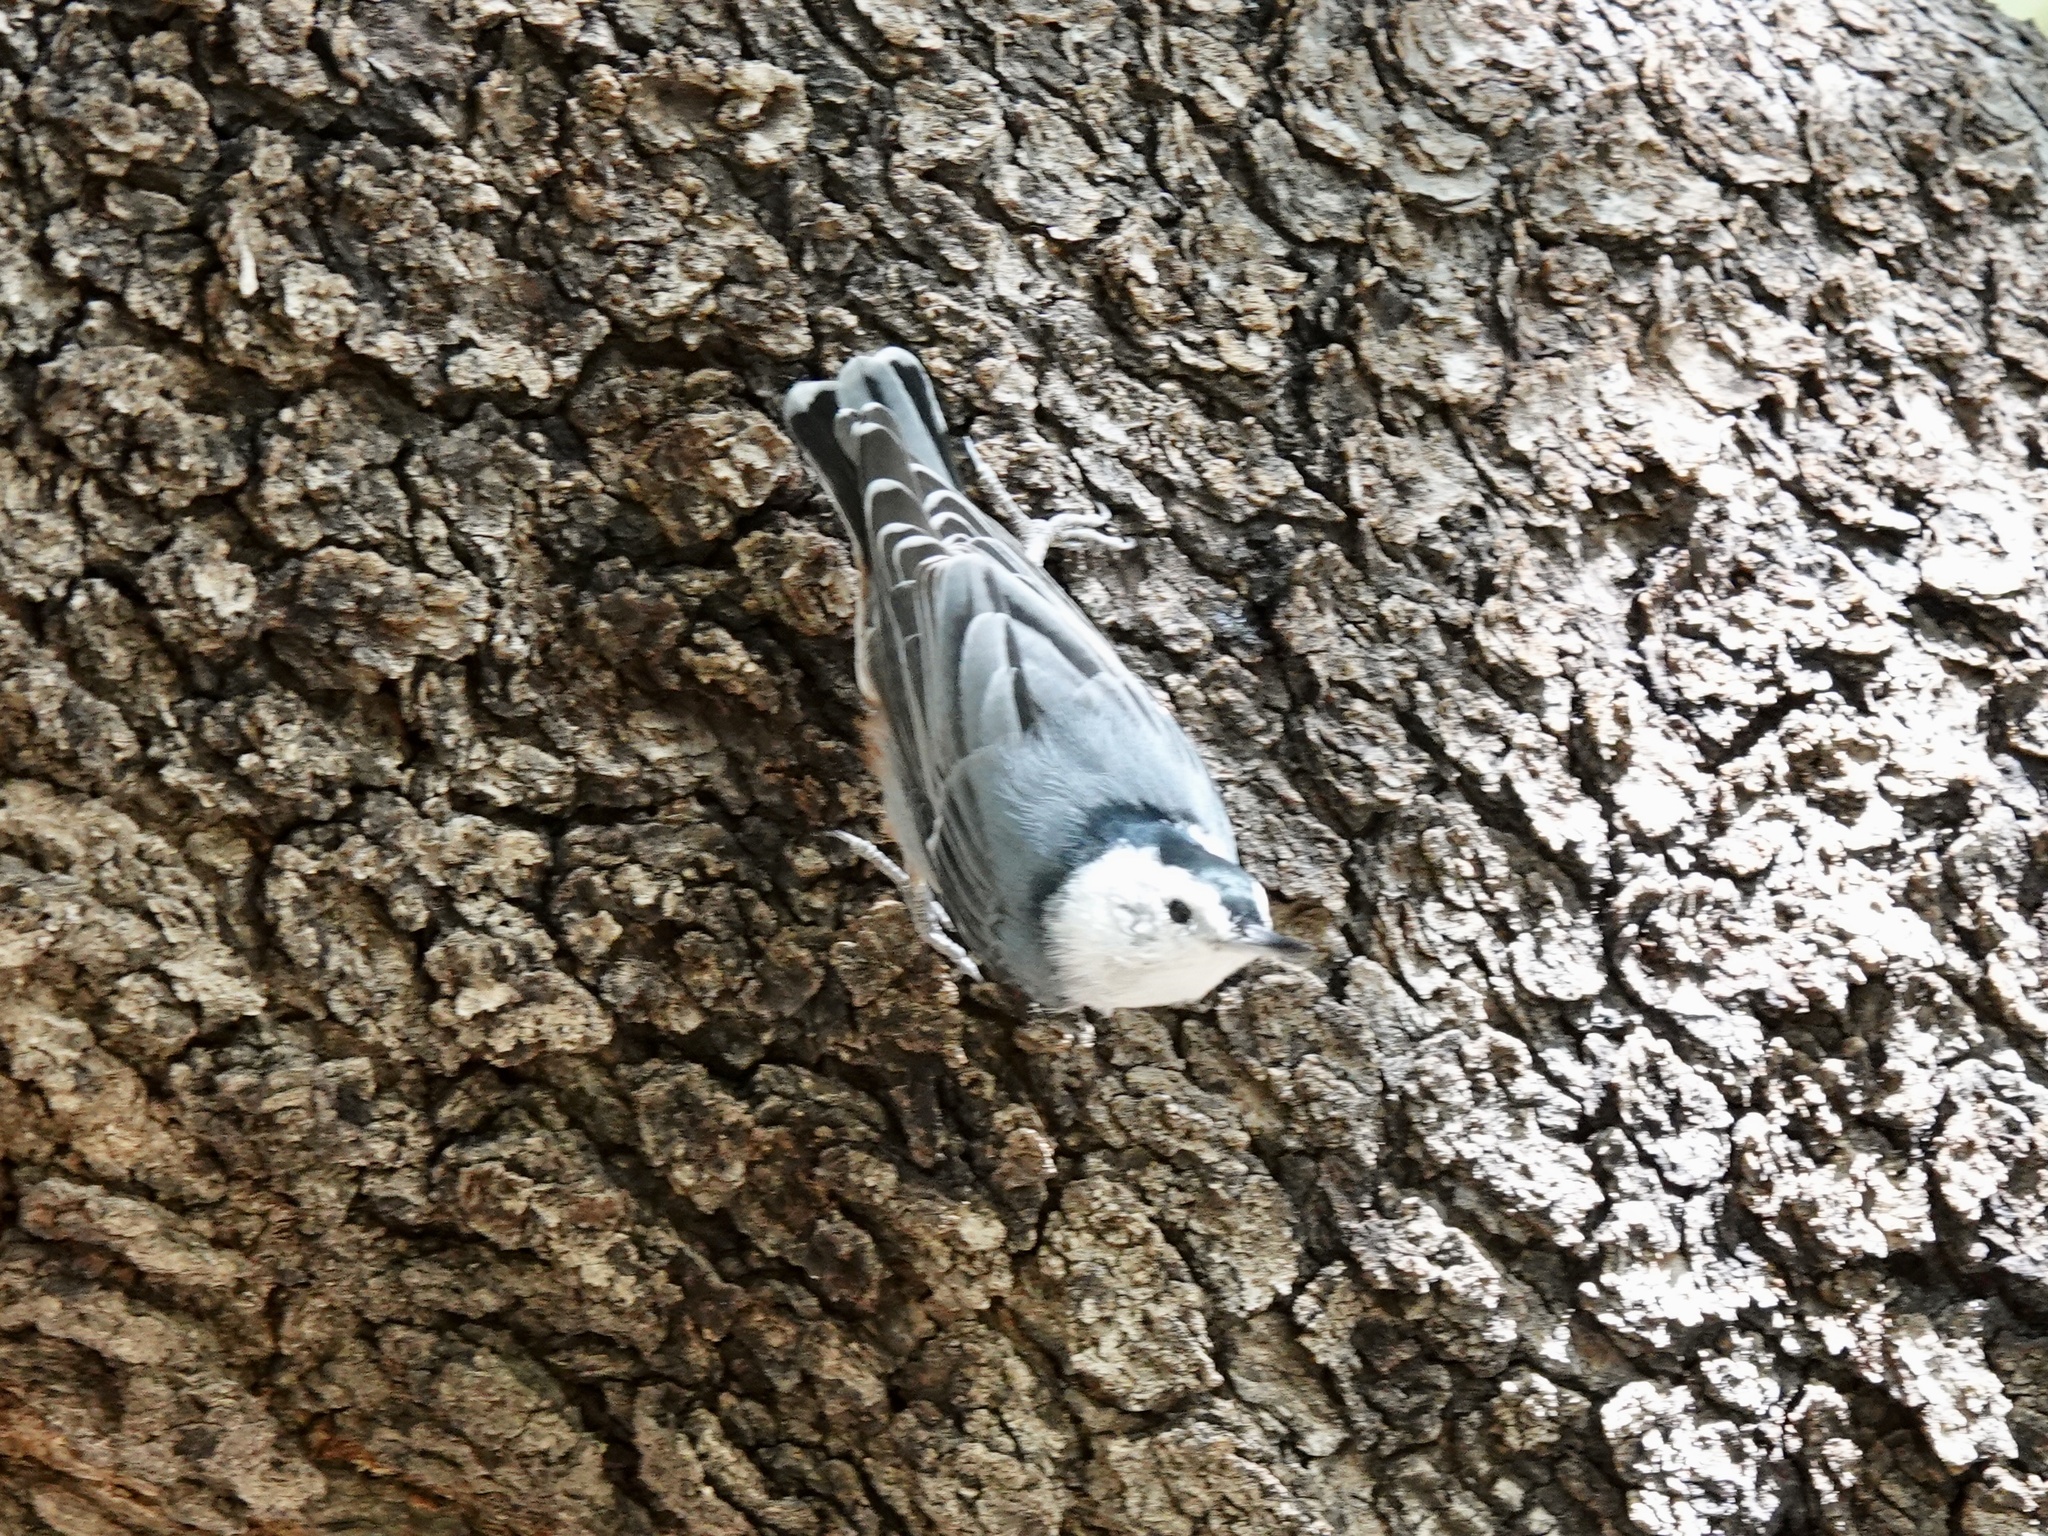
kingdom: Animalia
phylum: Chordata
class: Aves
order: Passeriformes
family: Sittidae
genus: Sitta
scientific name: Sitta carolinensis
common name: White-breasted nuthatch
